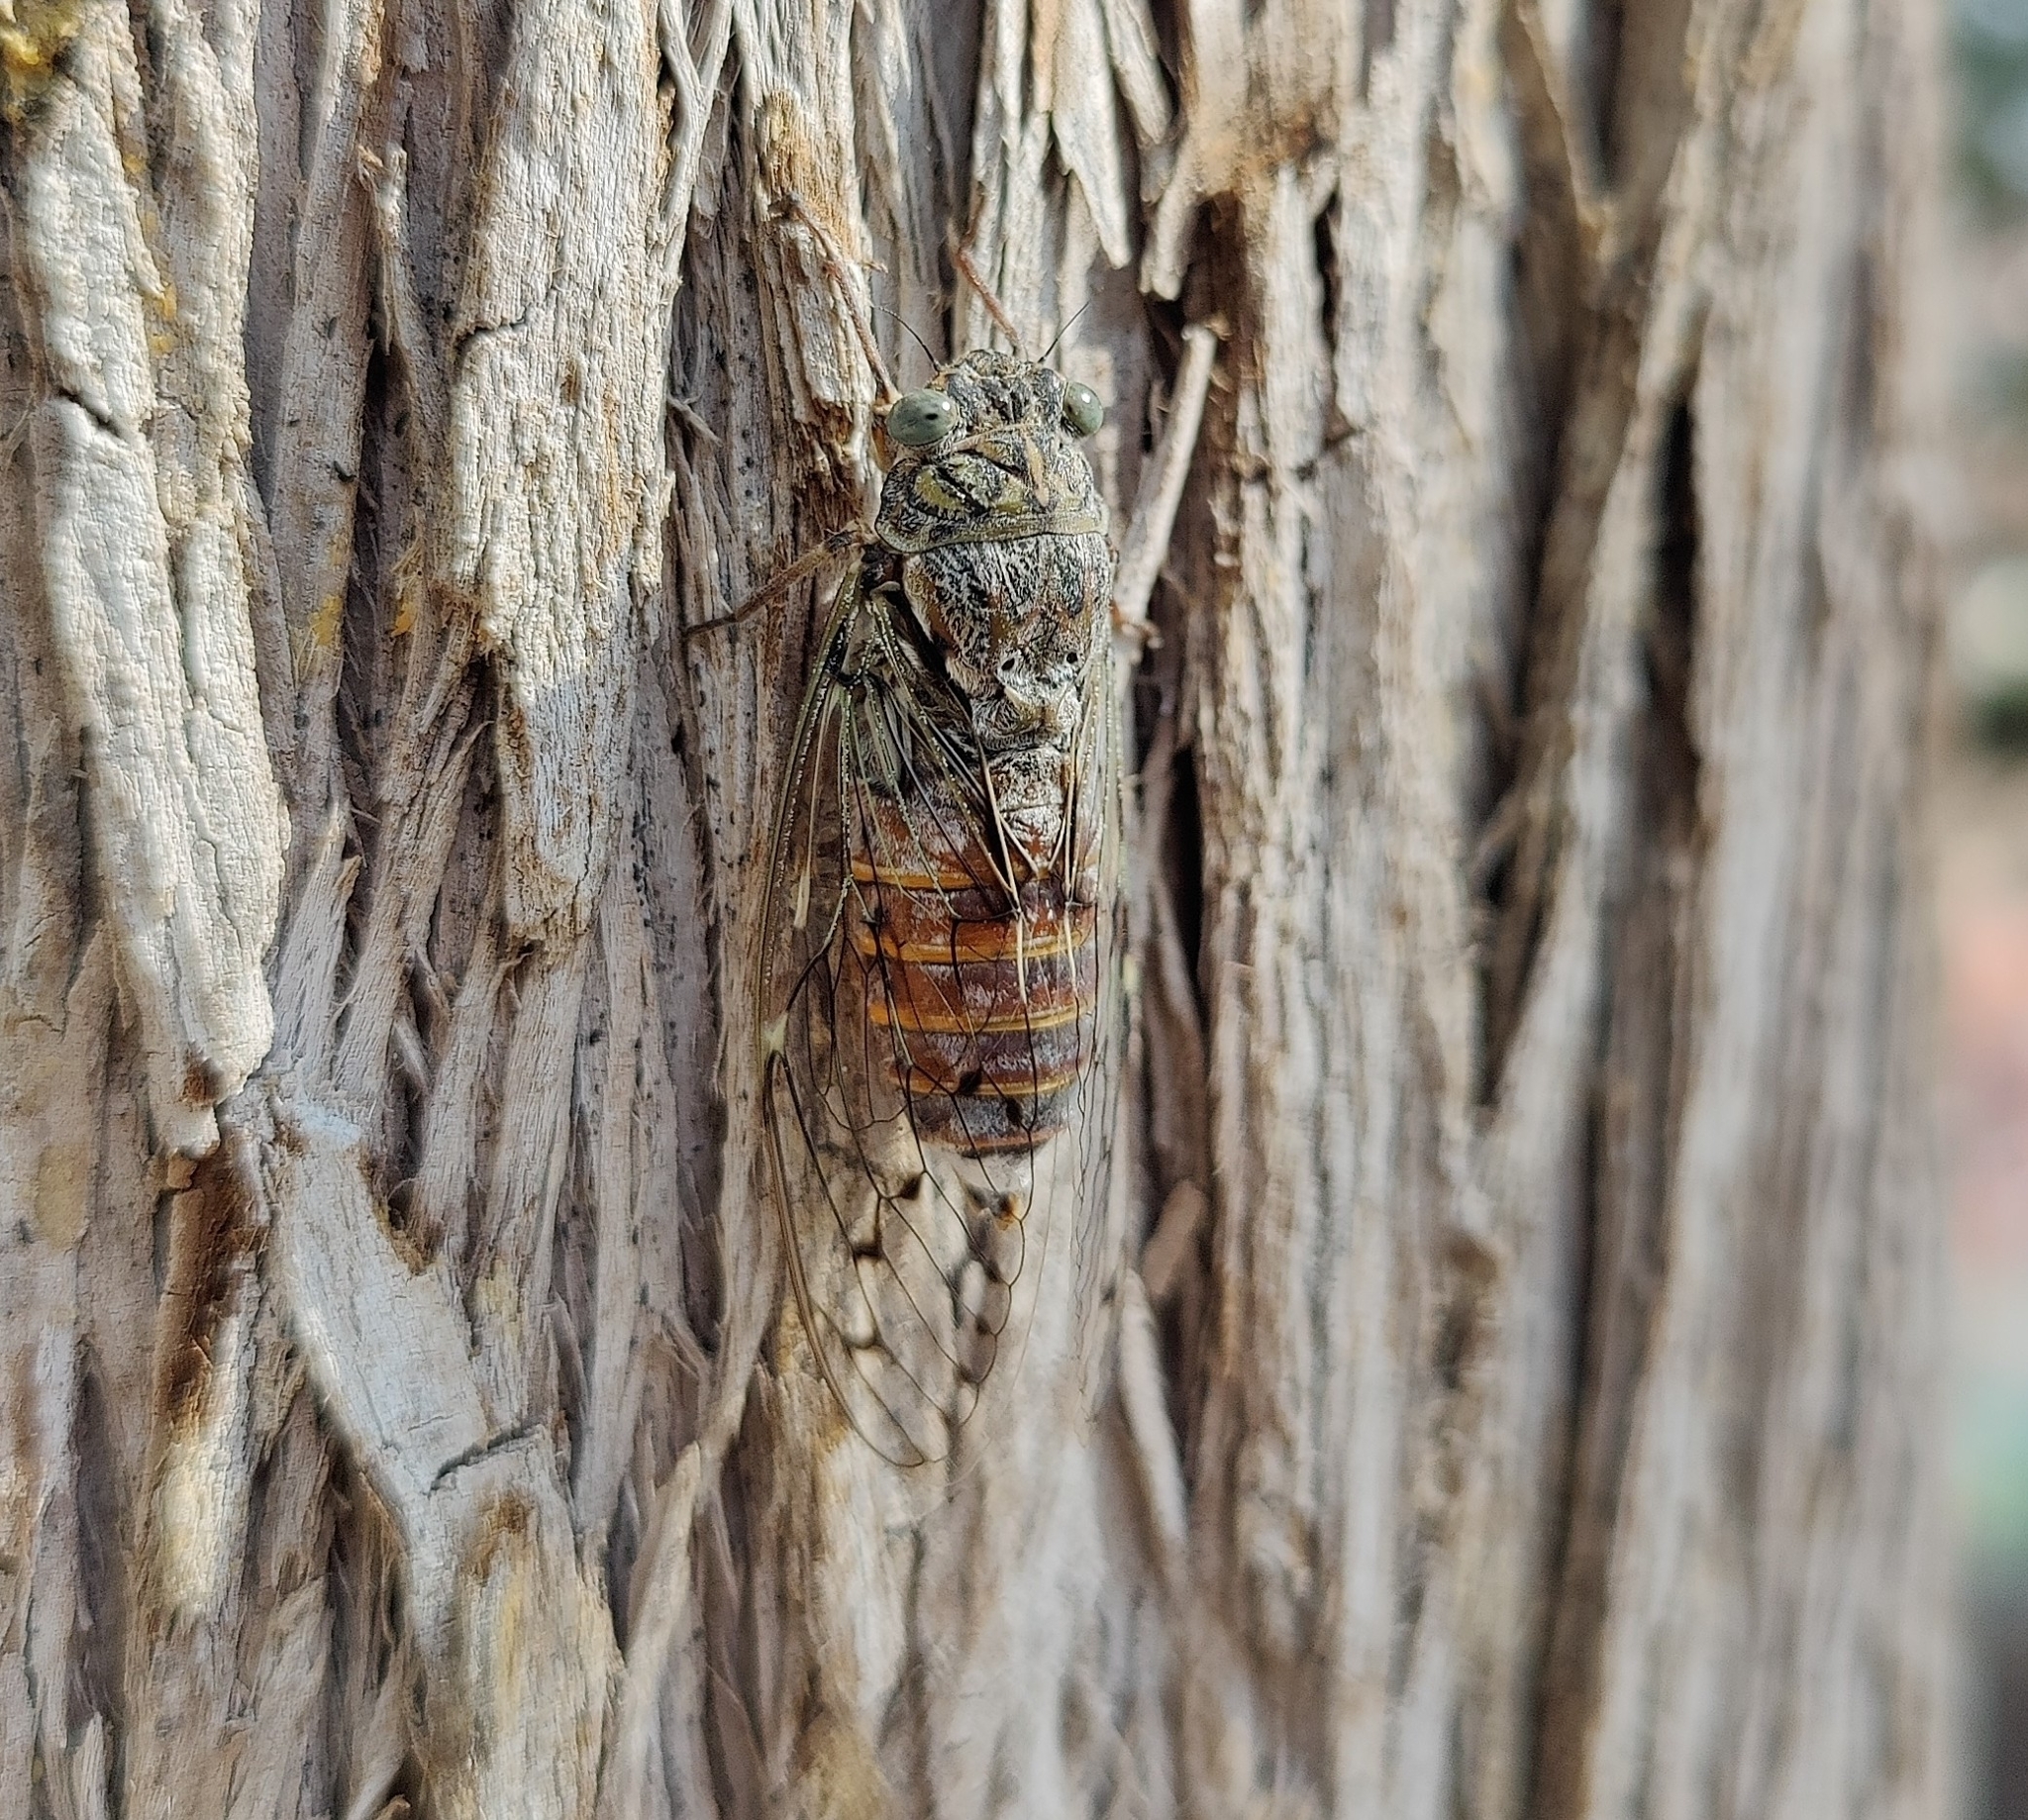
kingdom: Animalia
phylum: Arthropoda
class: Insecta
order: Hemiptera
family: Cicadidae
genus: Cicada
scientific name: Cicada orni
